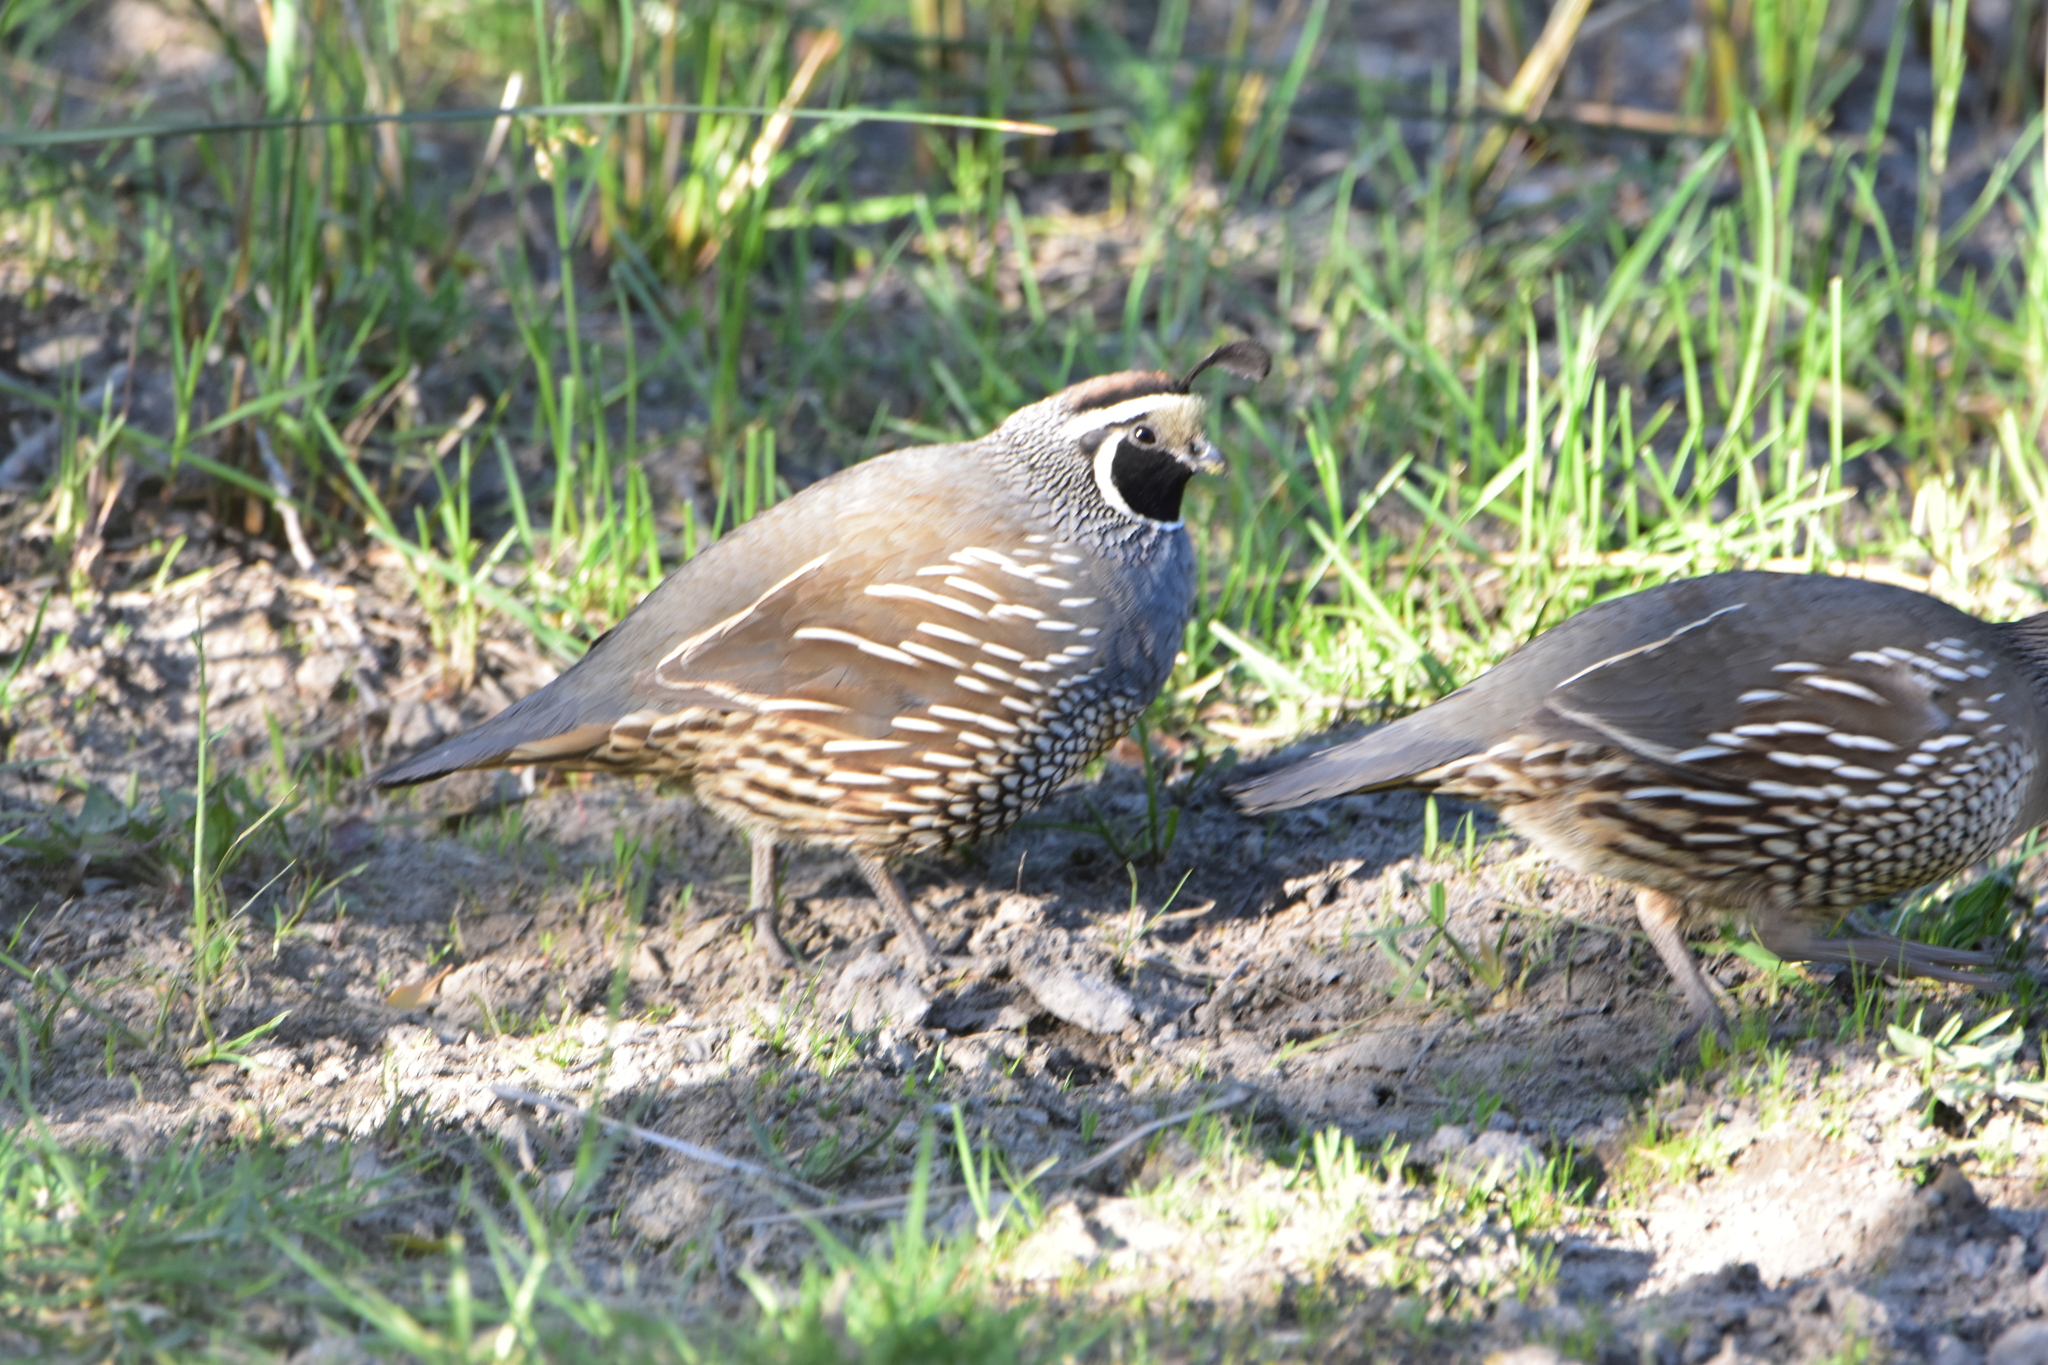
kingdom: Animalia
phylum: Chordata
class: Aves
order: Galliformes
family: Odontophoridae
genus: Callipepla
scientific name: Callipepla californica
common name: California quail
